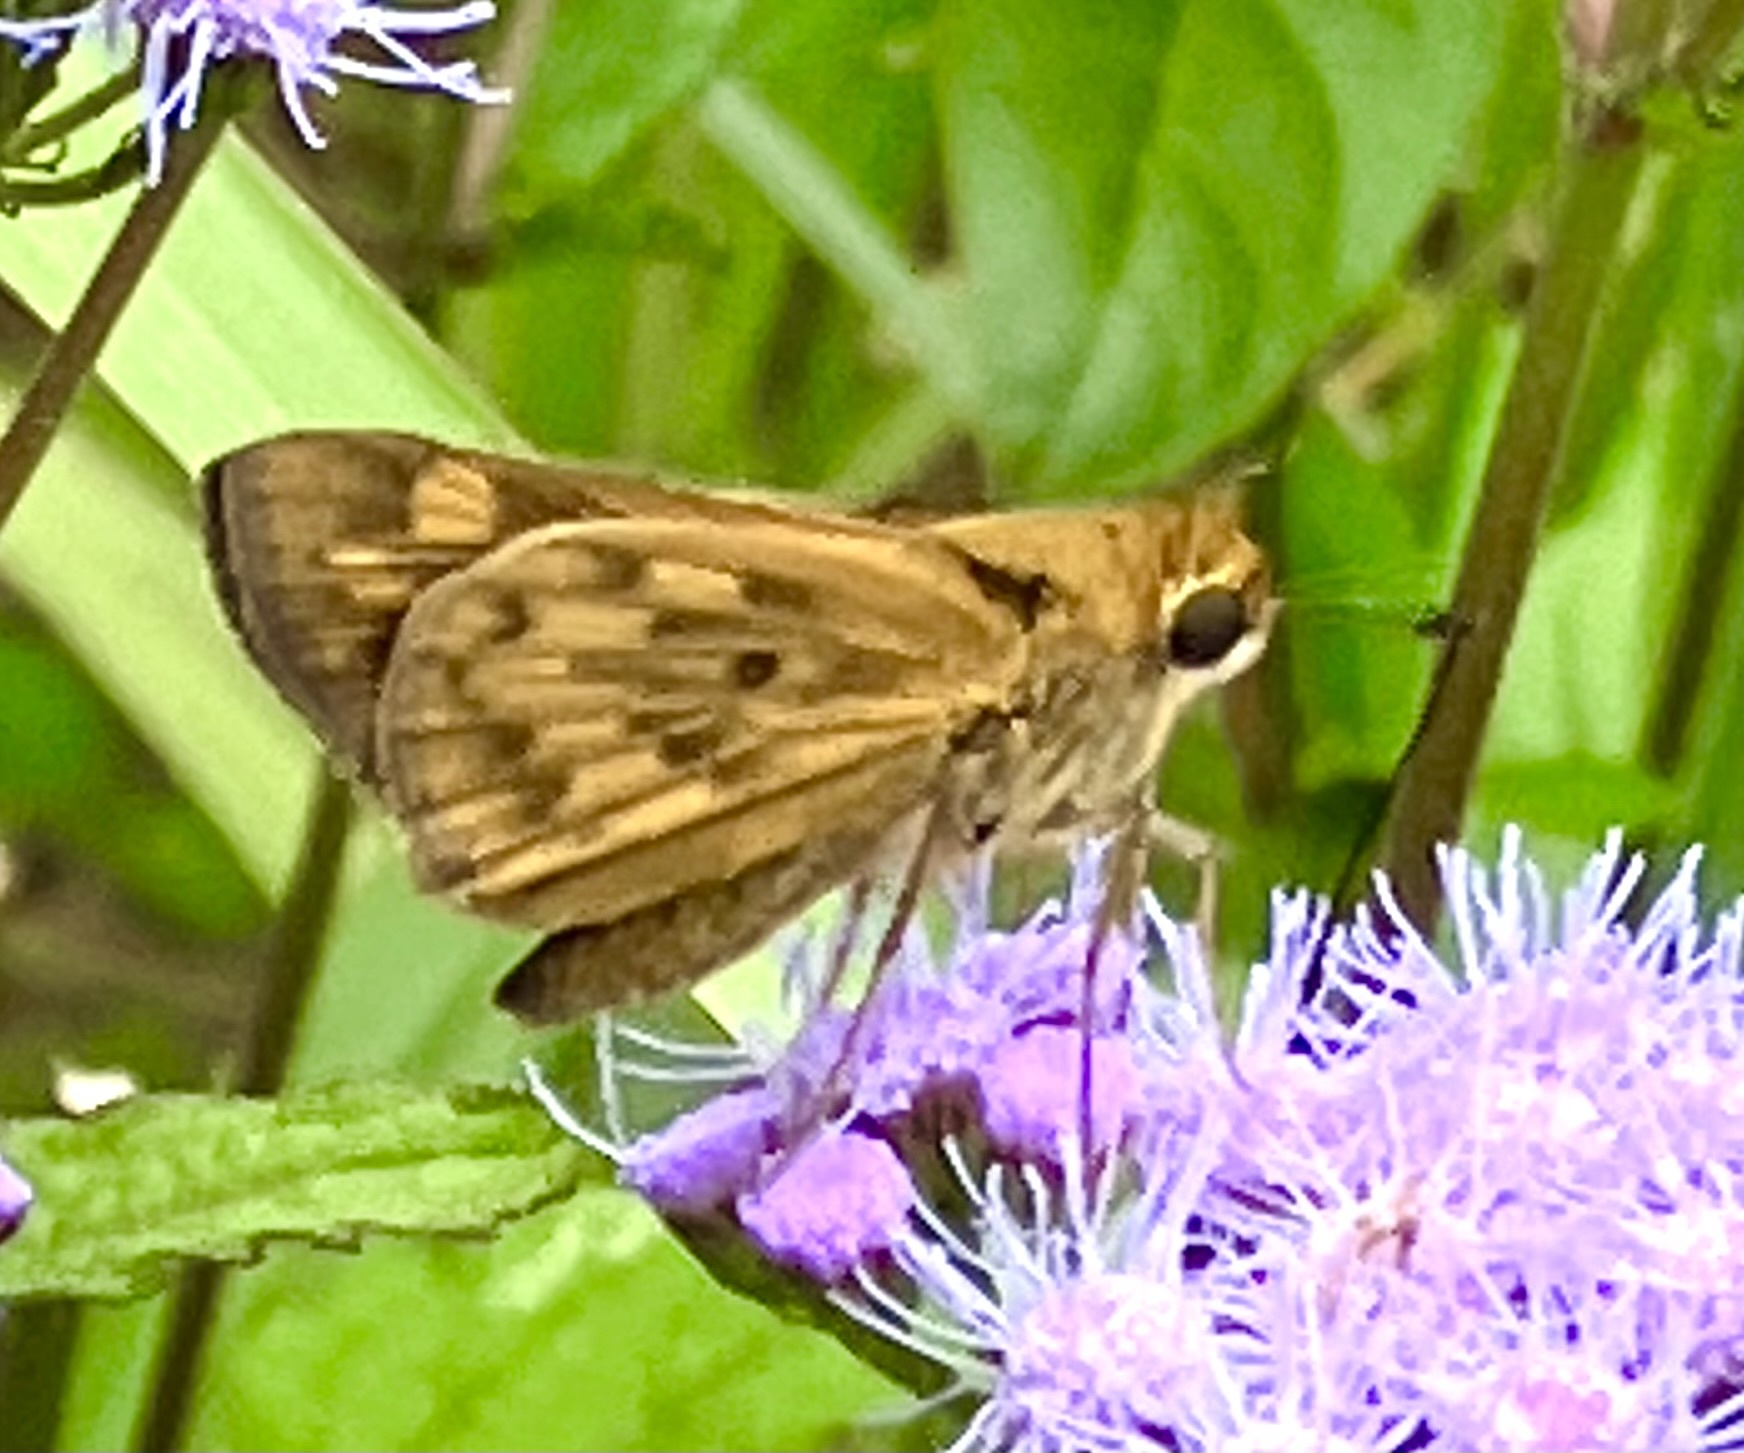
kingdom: Animalia
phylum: Arthropoda
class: Insecta
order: Lepidoptera
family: Hesperiidae
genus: Hylephila
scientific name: Hylephila phyleus
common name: Fiery skipper
